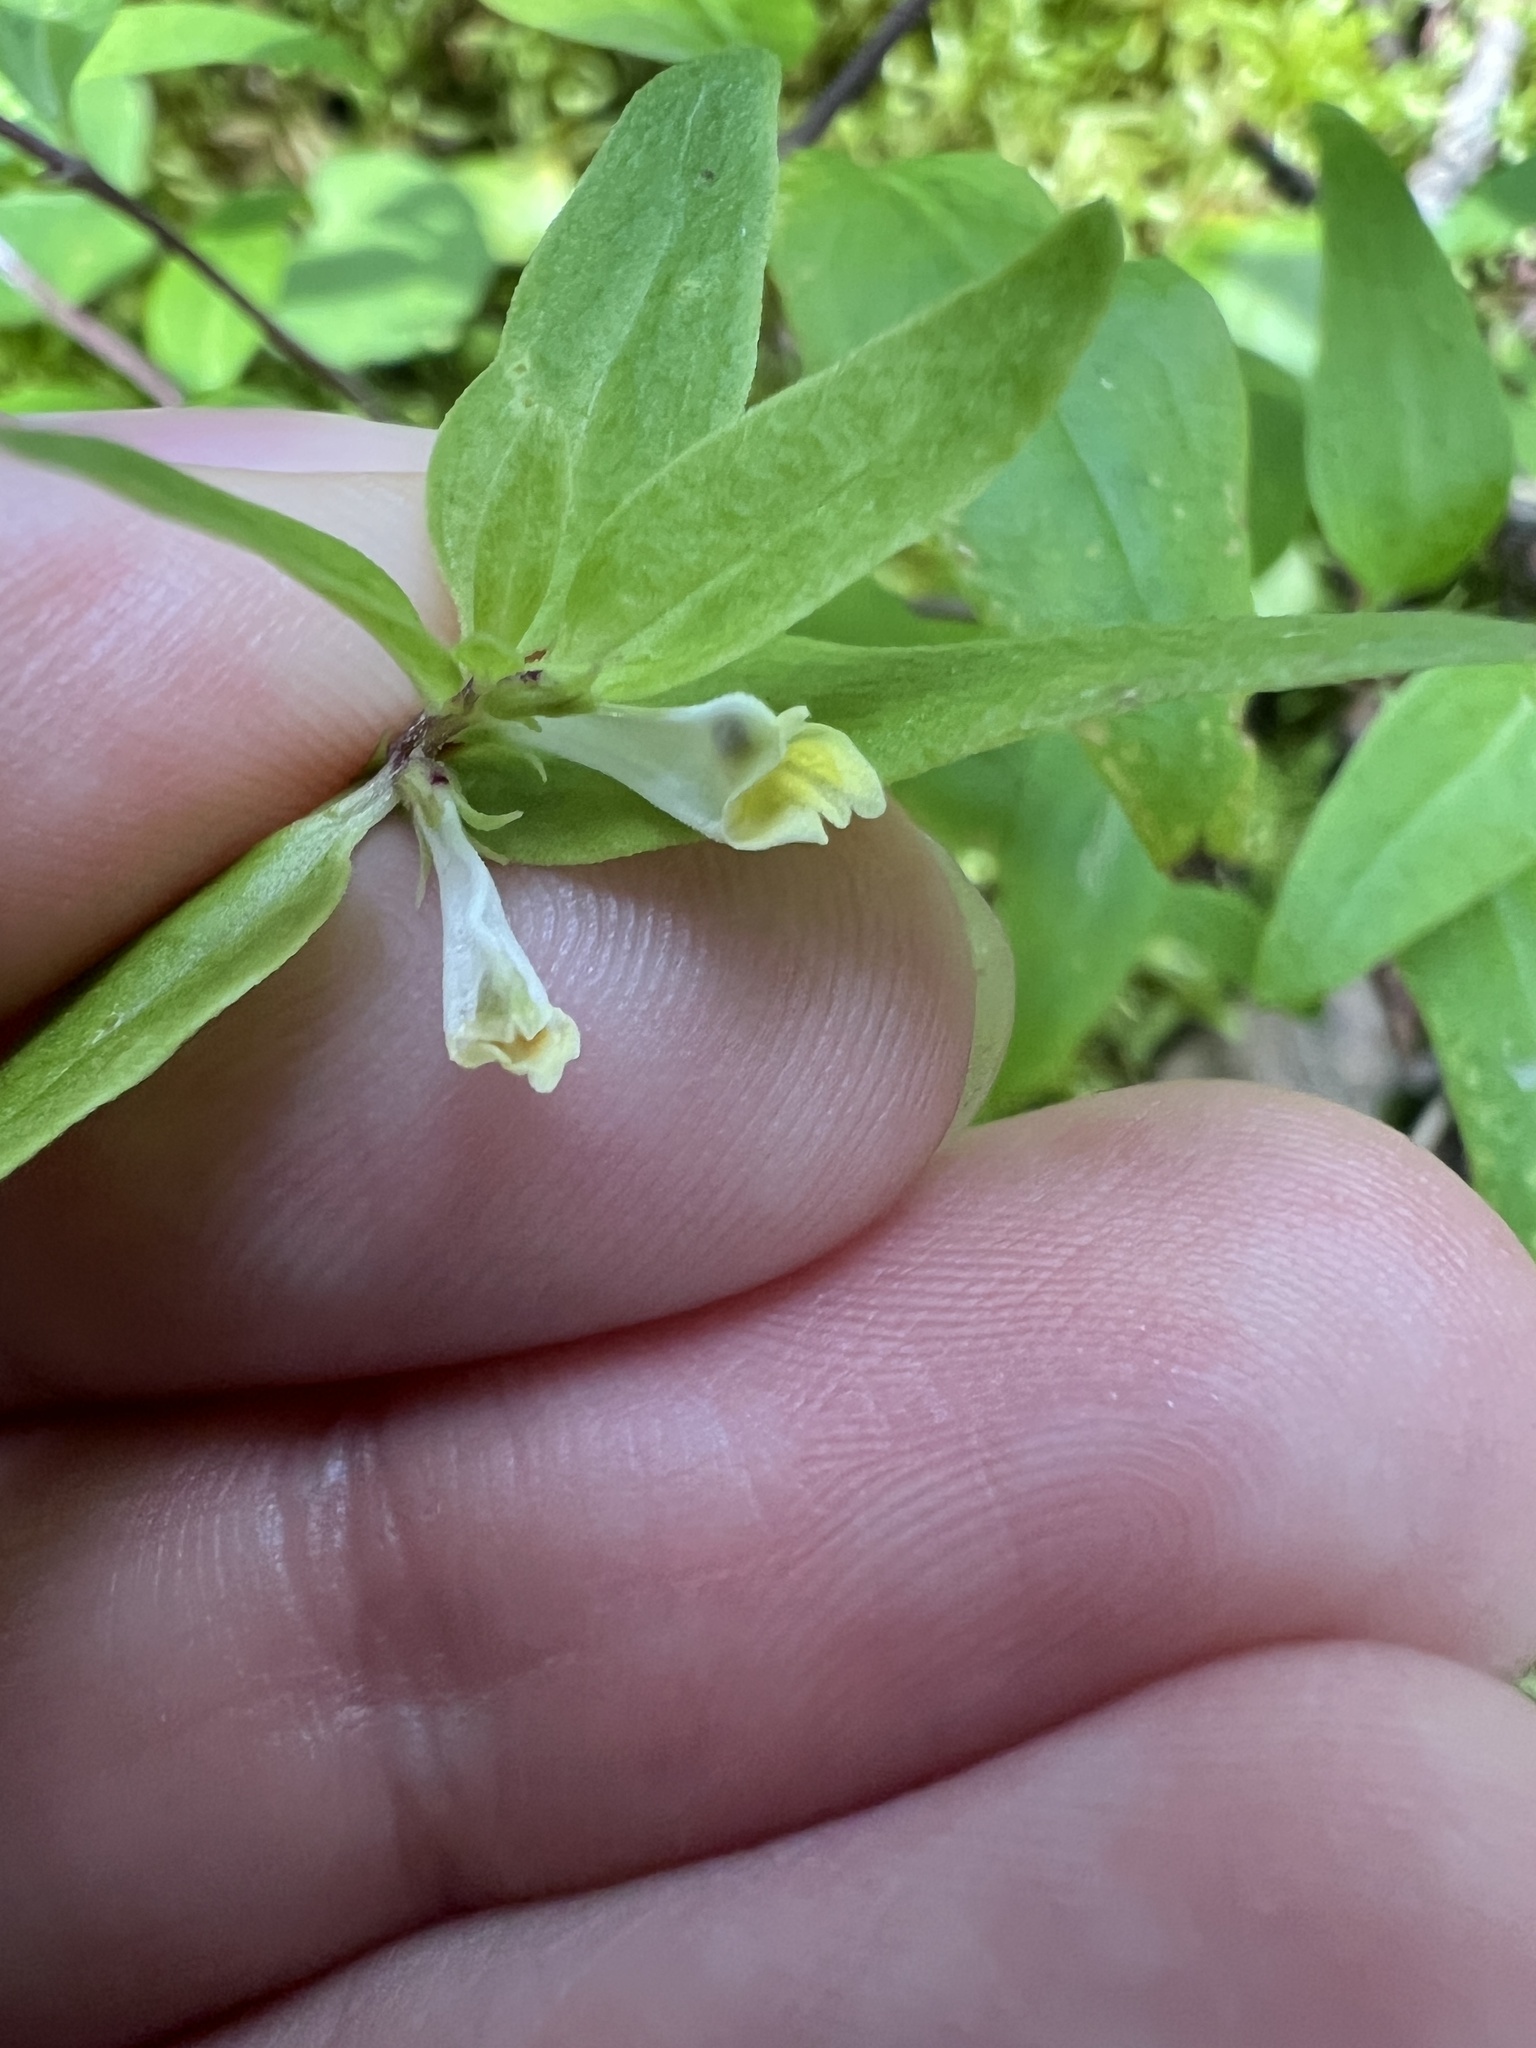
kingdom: Plantae
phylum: Tracheophyta
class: Magnoliopsida
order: Lamiales
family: Orobanchaceae
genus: Melampyrum
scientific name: Melampyrum lineare
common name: American cow-wheat
